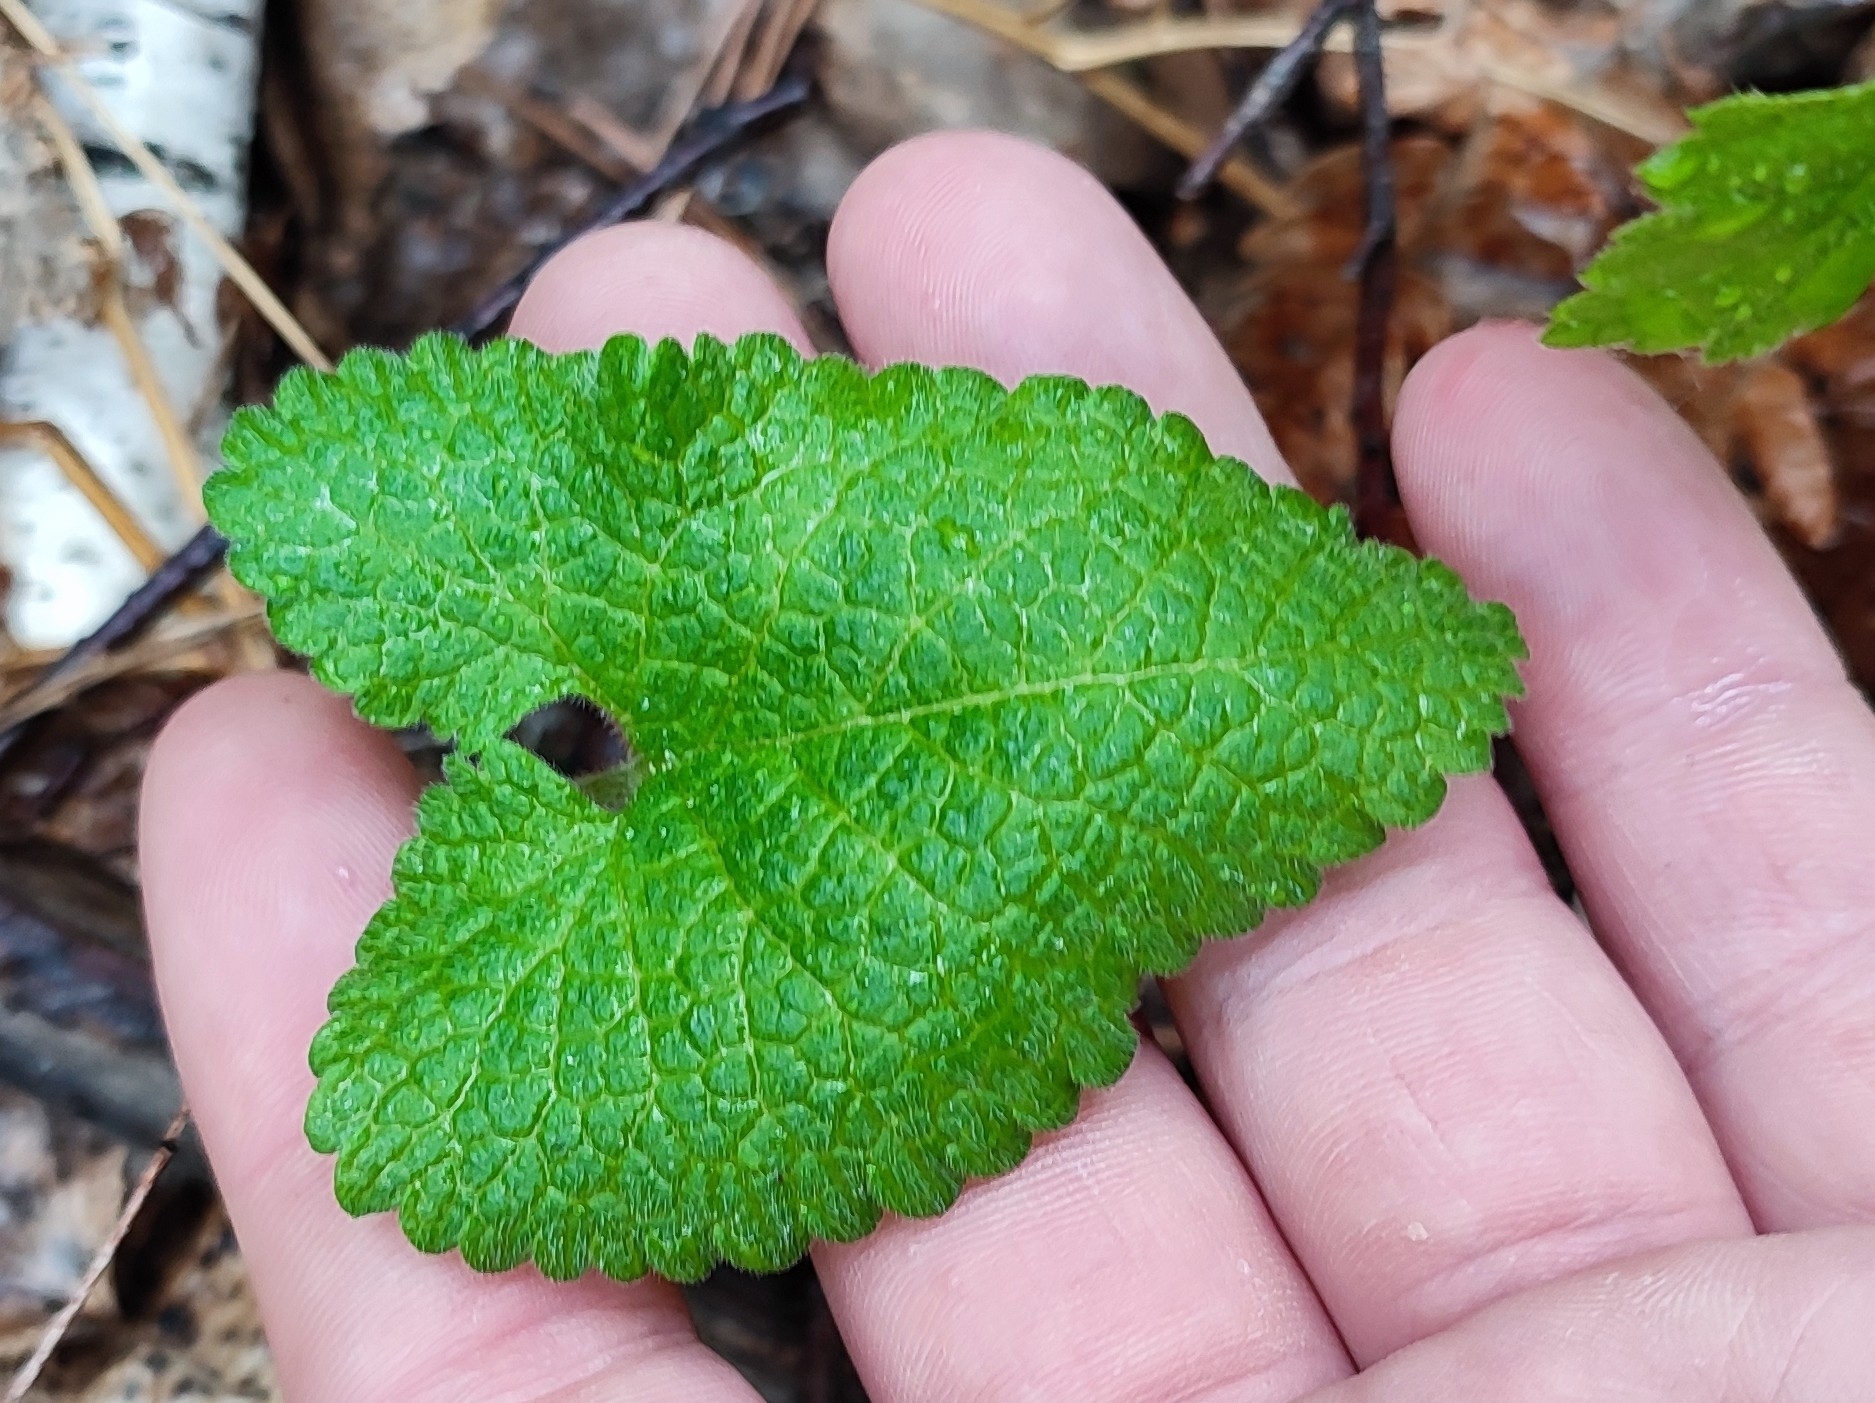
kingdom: Plantae
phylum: Tracheophyta
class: Magnoliopsida
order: Lamiales
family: Lamiaceae
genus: Phlomoides
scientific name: Phlomoides tuberosa
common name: Tuberous jerusalem sage
